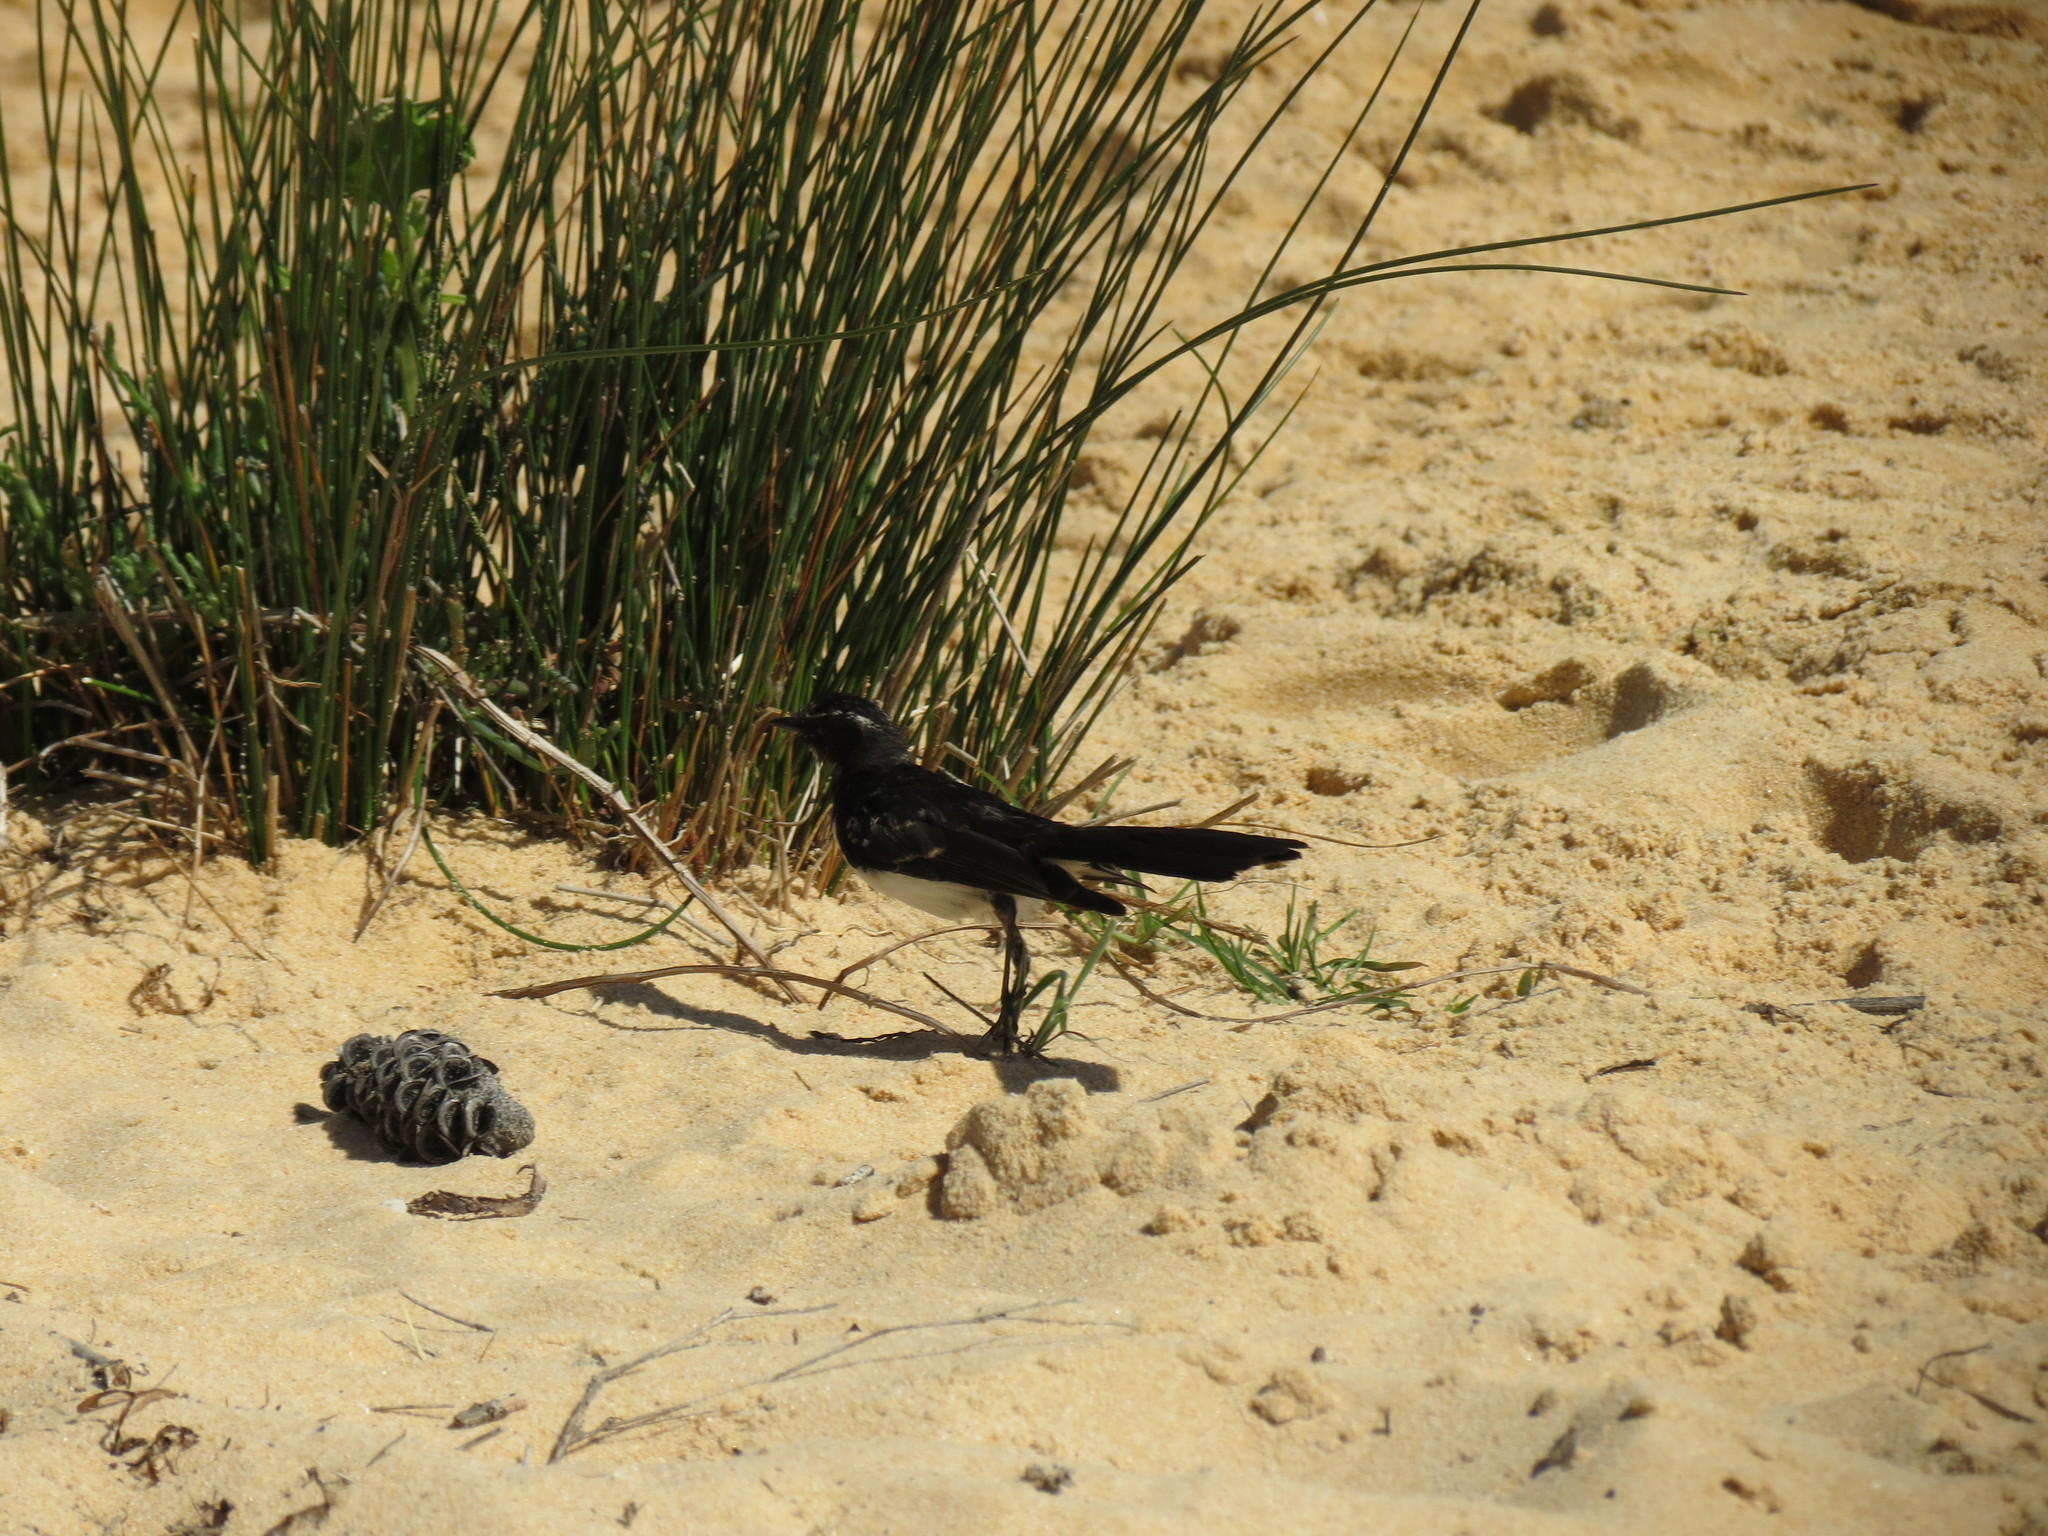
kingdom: Animalia
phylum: Chordata
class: Aves
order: Passeriformes
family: Rhipiduridae
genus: Rhipidura
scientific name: Rhipidura leucophrys
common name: Willie wagtail
